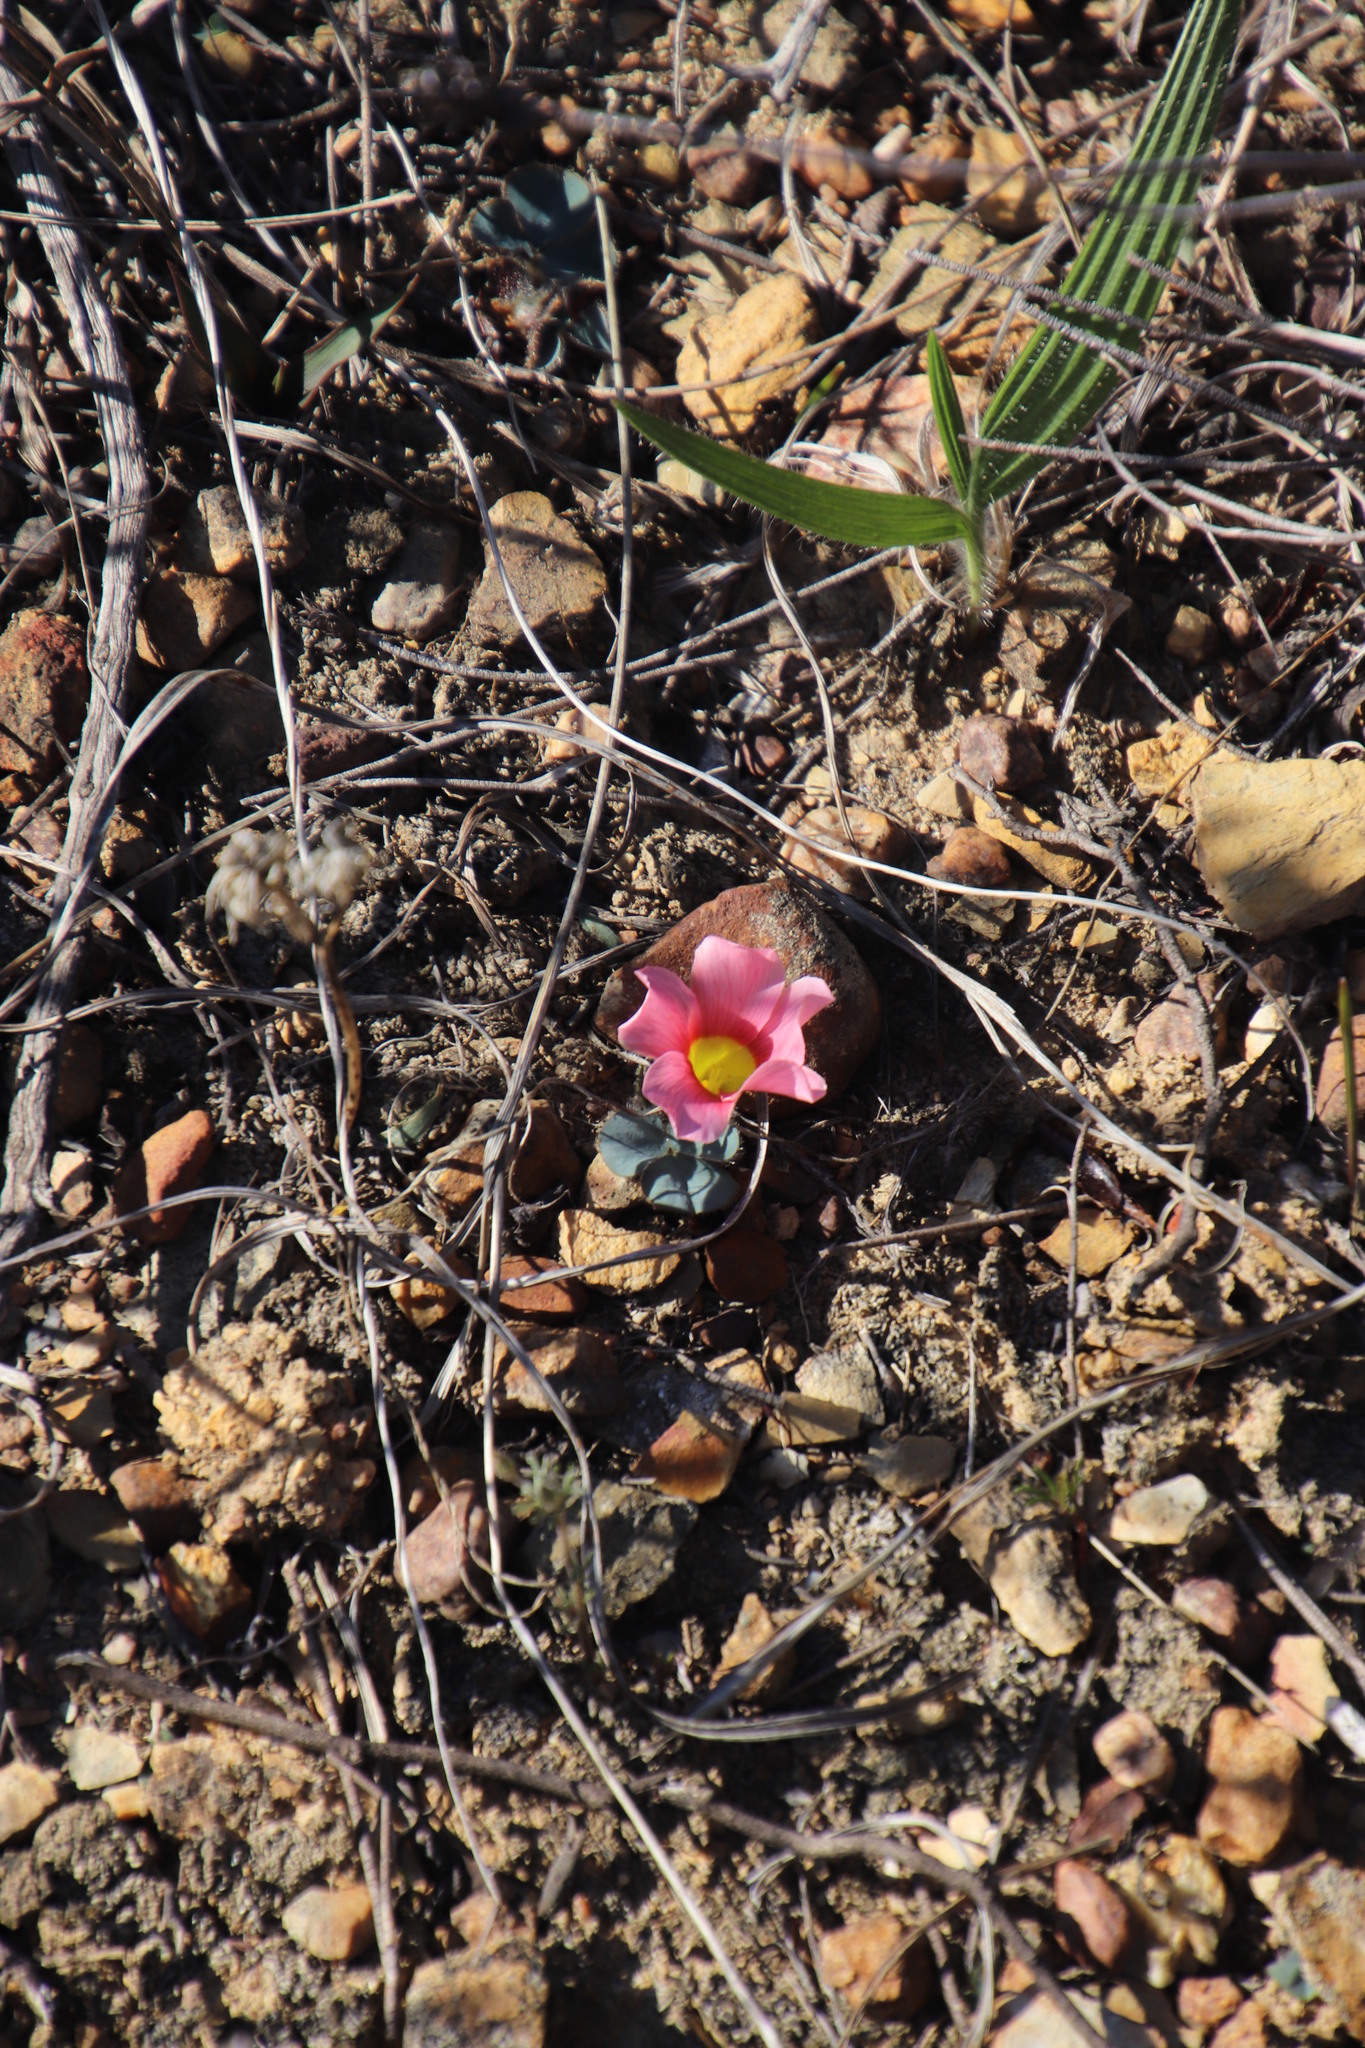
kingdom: Plantae
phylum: Tracheophyta
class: Magnoliopsida
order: Oxalidales
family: Oxalidaceae
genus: Oxalis
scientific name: Oxalis purpurea
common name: Purple woodsorrel
